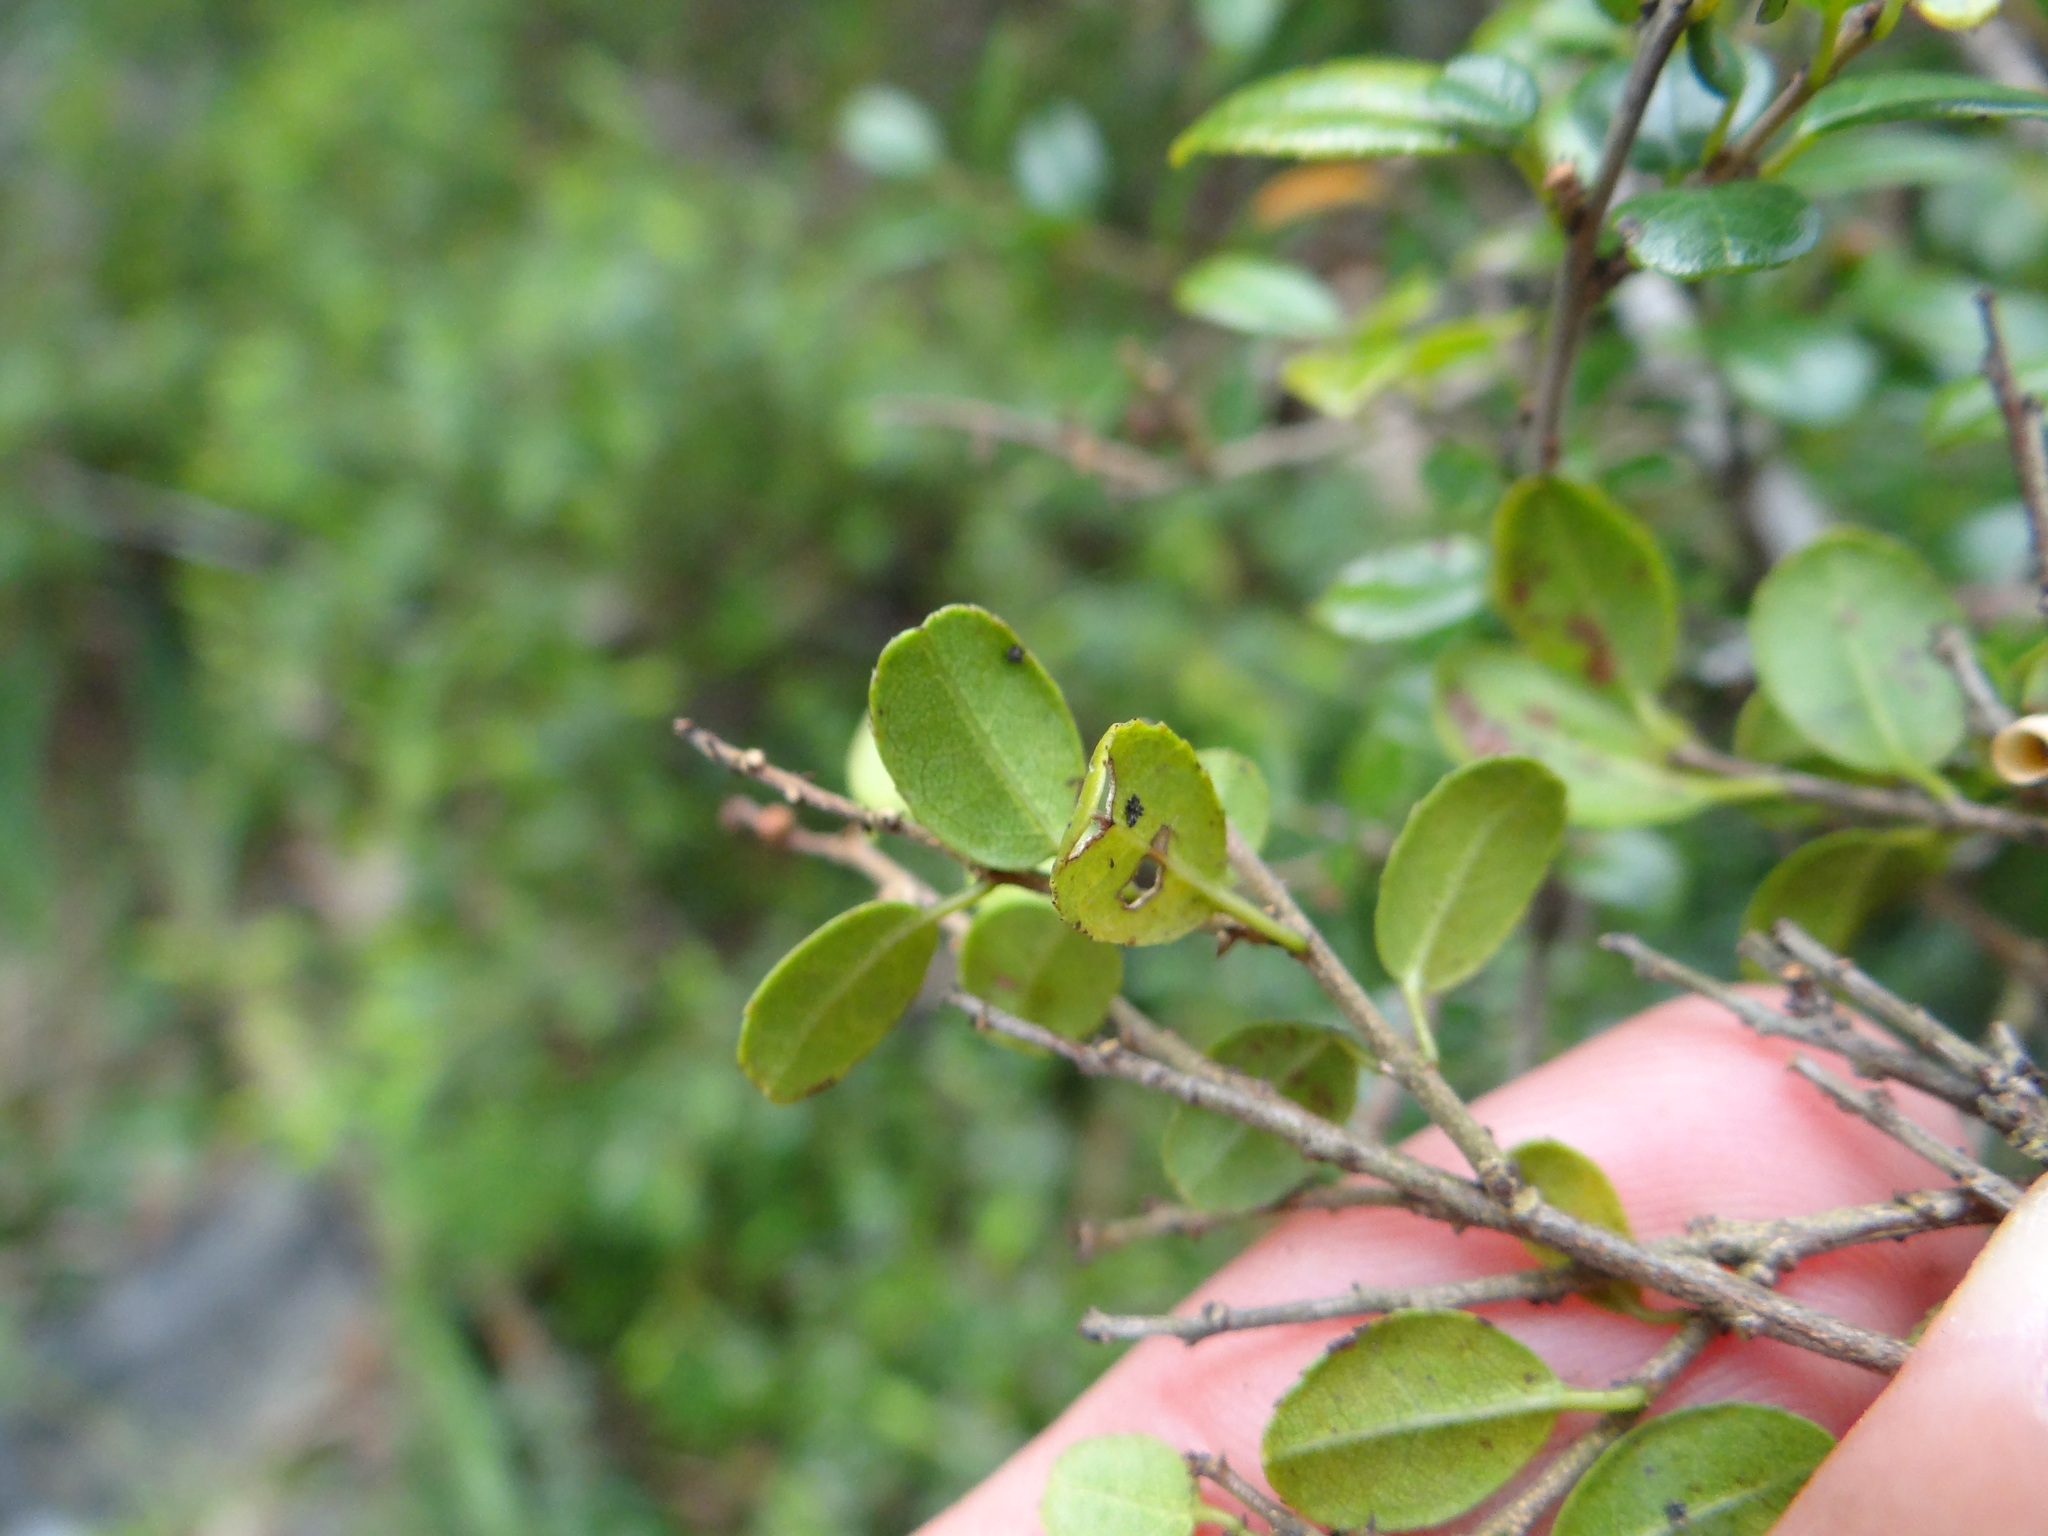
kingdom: Plantae
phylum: Tracheophyta
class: Magnoliopsida
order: Rosales
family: Rhamnaceae
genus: Sageretia
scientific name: Sageretia thea
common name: Pauper's-tea
